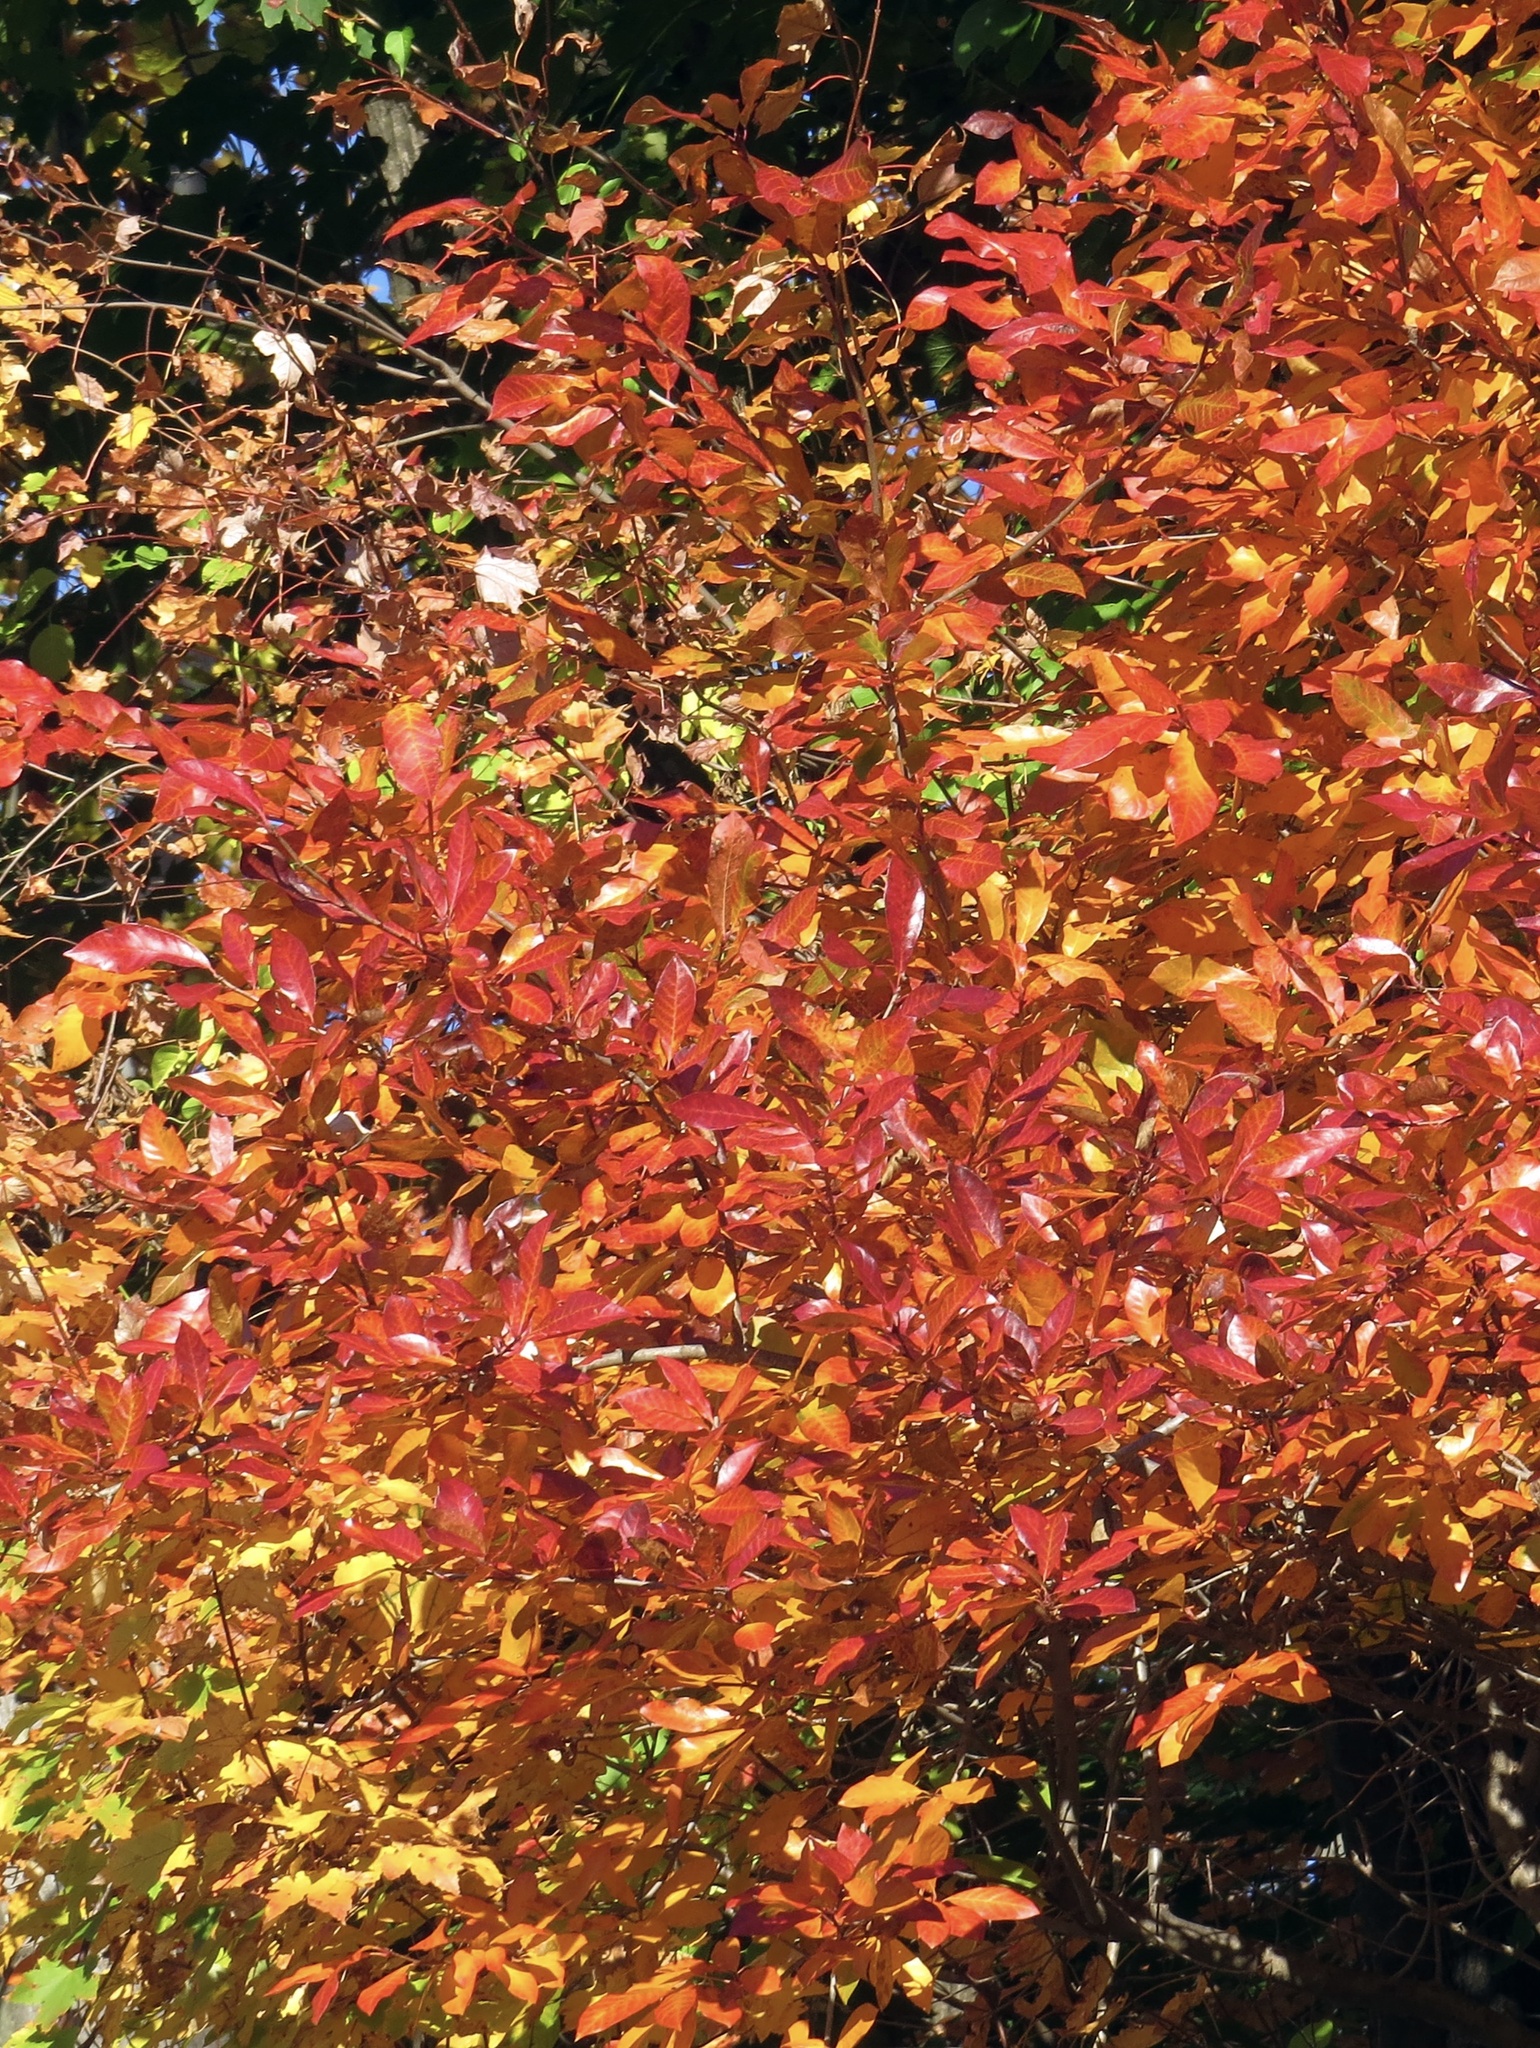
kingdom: Plantae
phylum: Tracheophyta
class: Magnoliopsida
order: Cornales
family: Nyssaceae
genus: Nyssa
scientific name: Nyssa sylvatica
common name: Black tupelo
